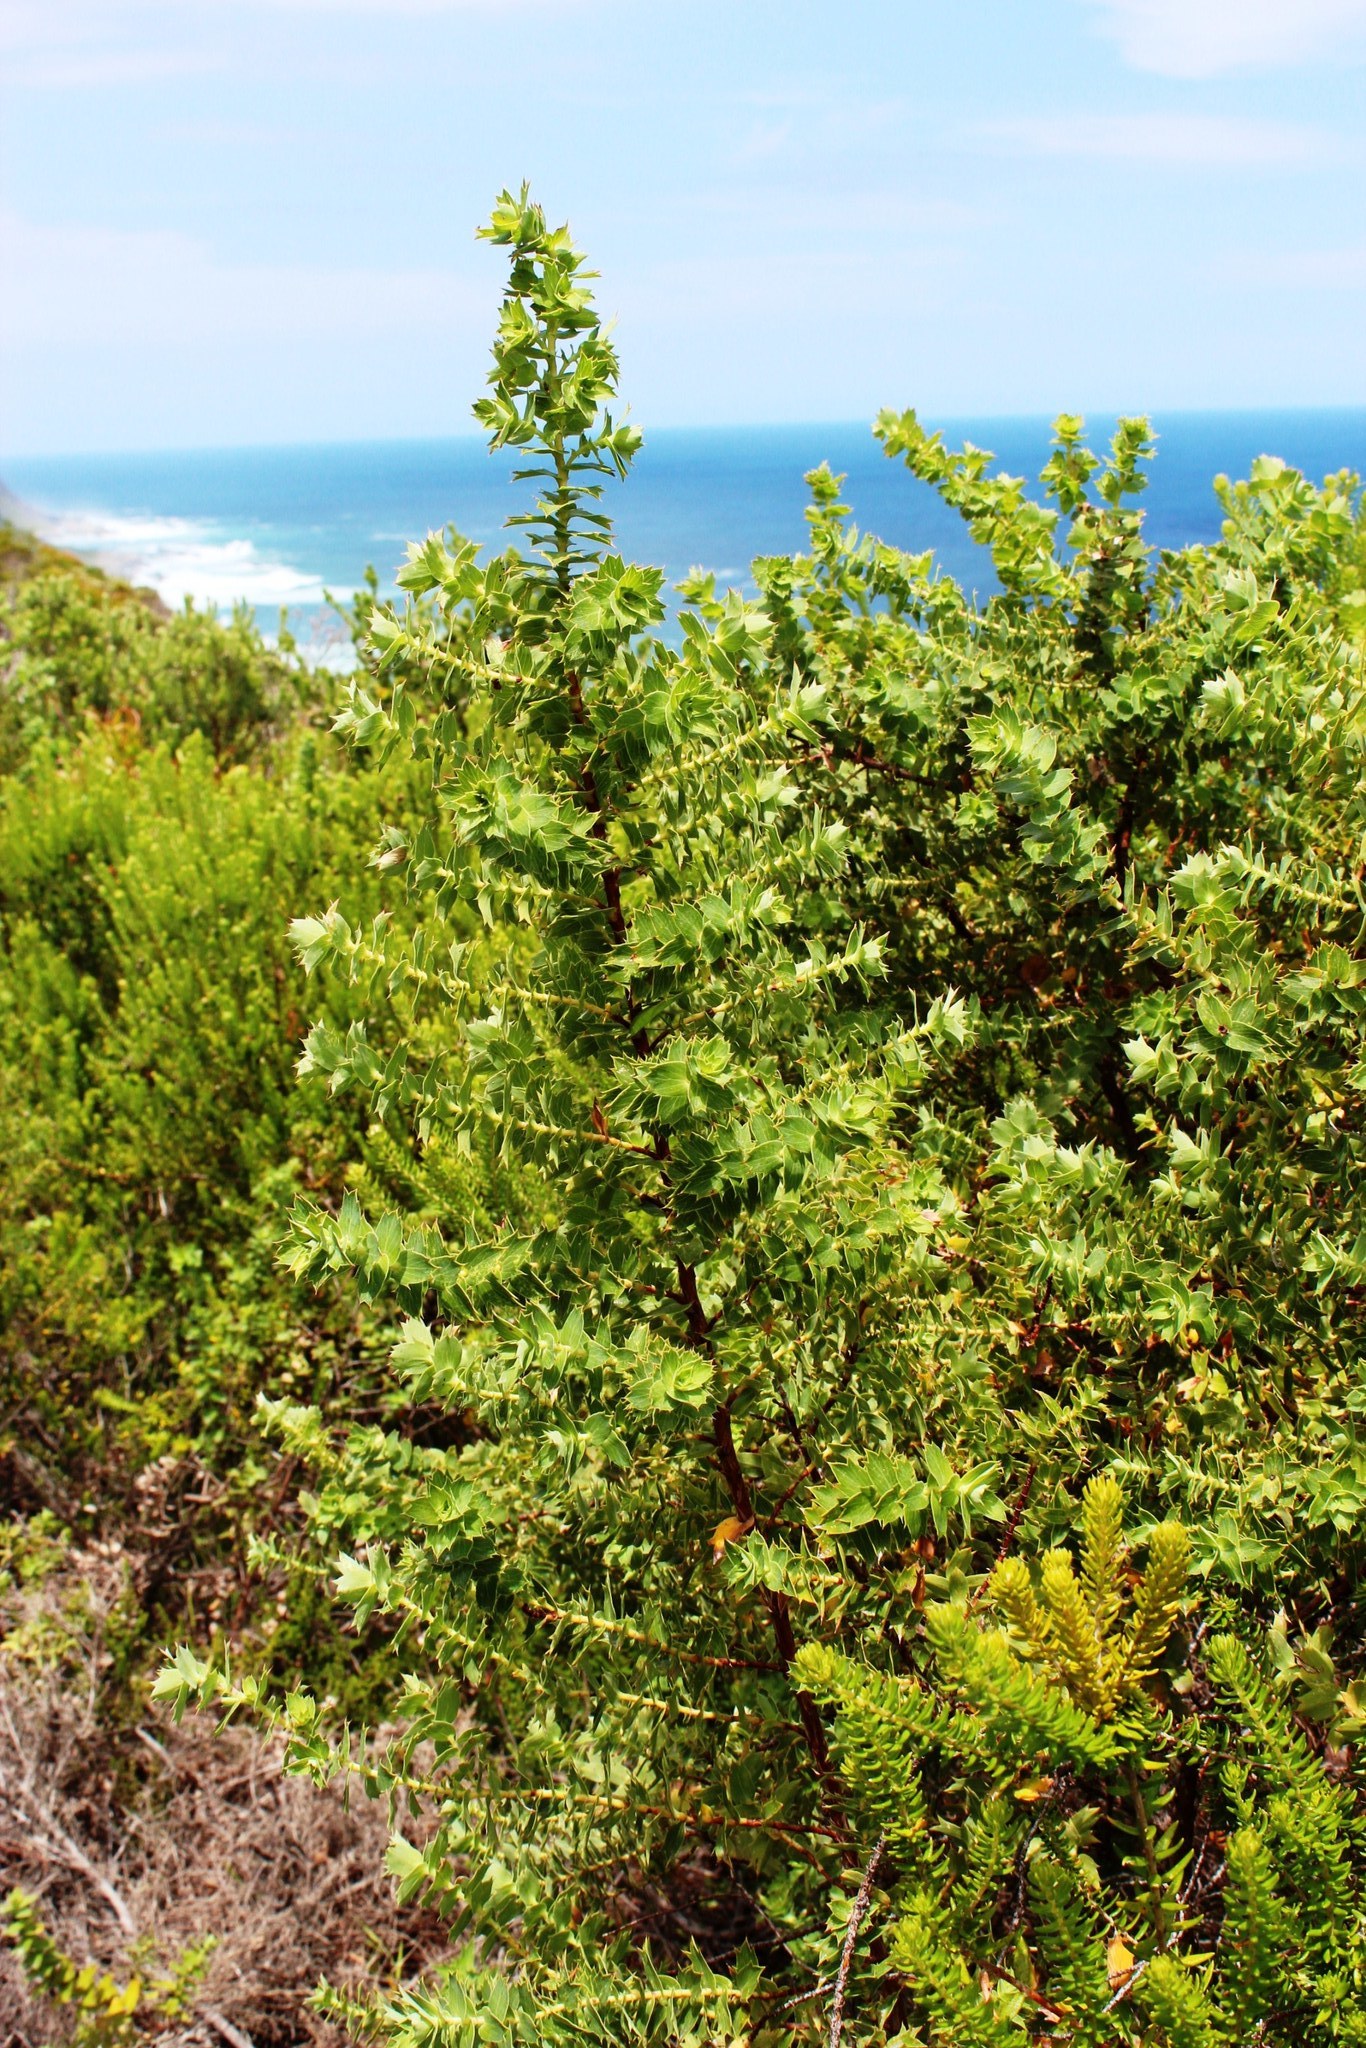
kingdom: Plantae
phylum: Tracheophyta
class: Magnoliopsida
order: Rosales
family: Rosaceae
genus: Cliffortia
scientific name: Cliffortia ilicifolia
